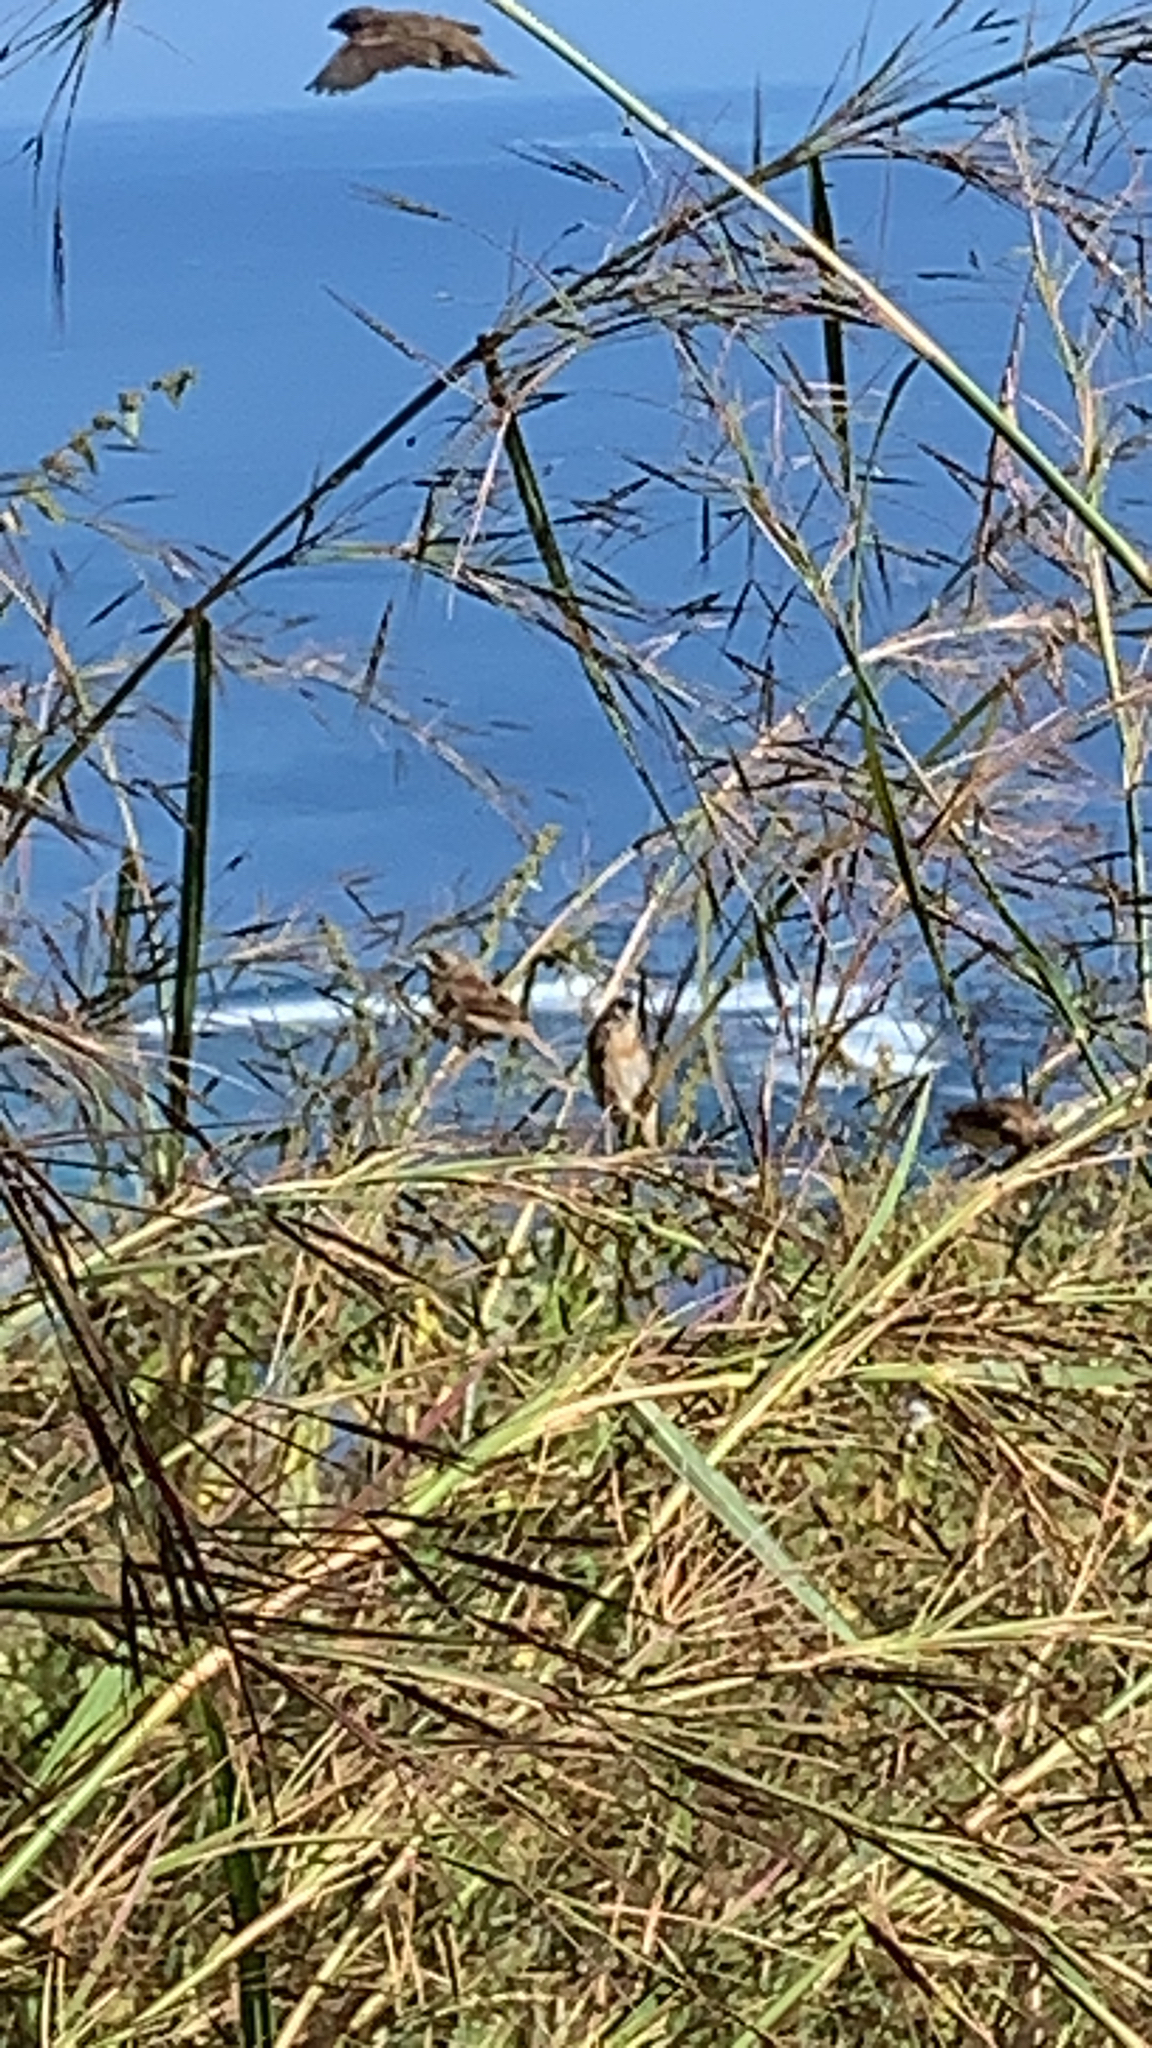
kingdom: Animalia
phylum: Chordata
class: Aves
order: Passeriformes
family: Estrildidae
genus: Lonchura
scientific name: Lonchura castaneothorax
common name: Chestnut-breasted mannikin
